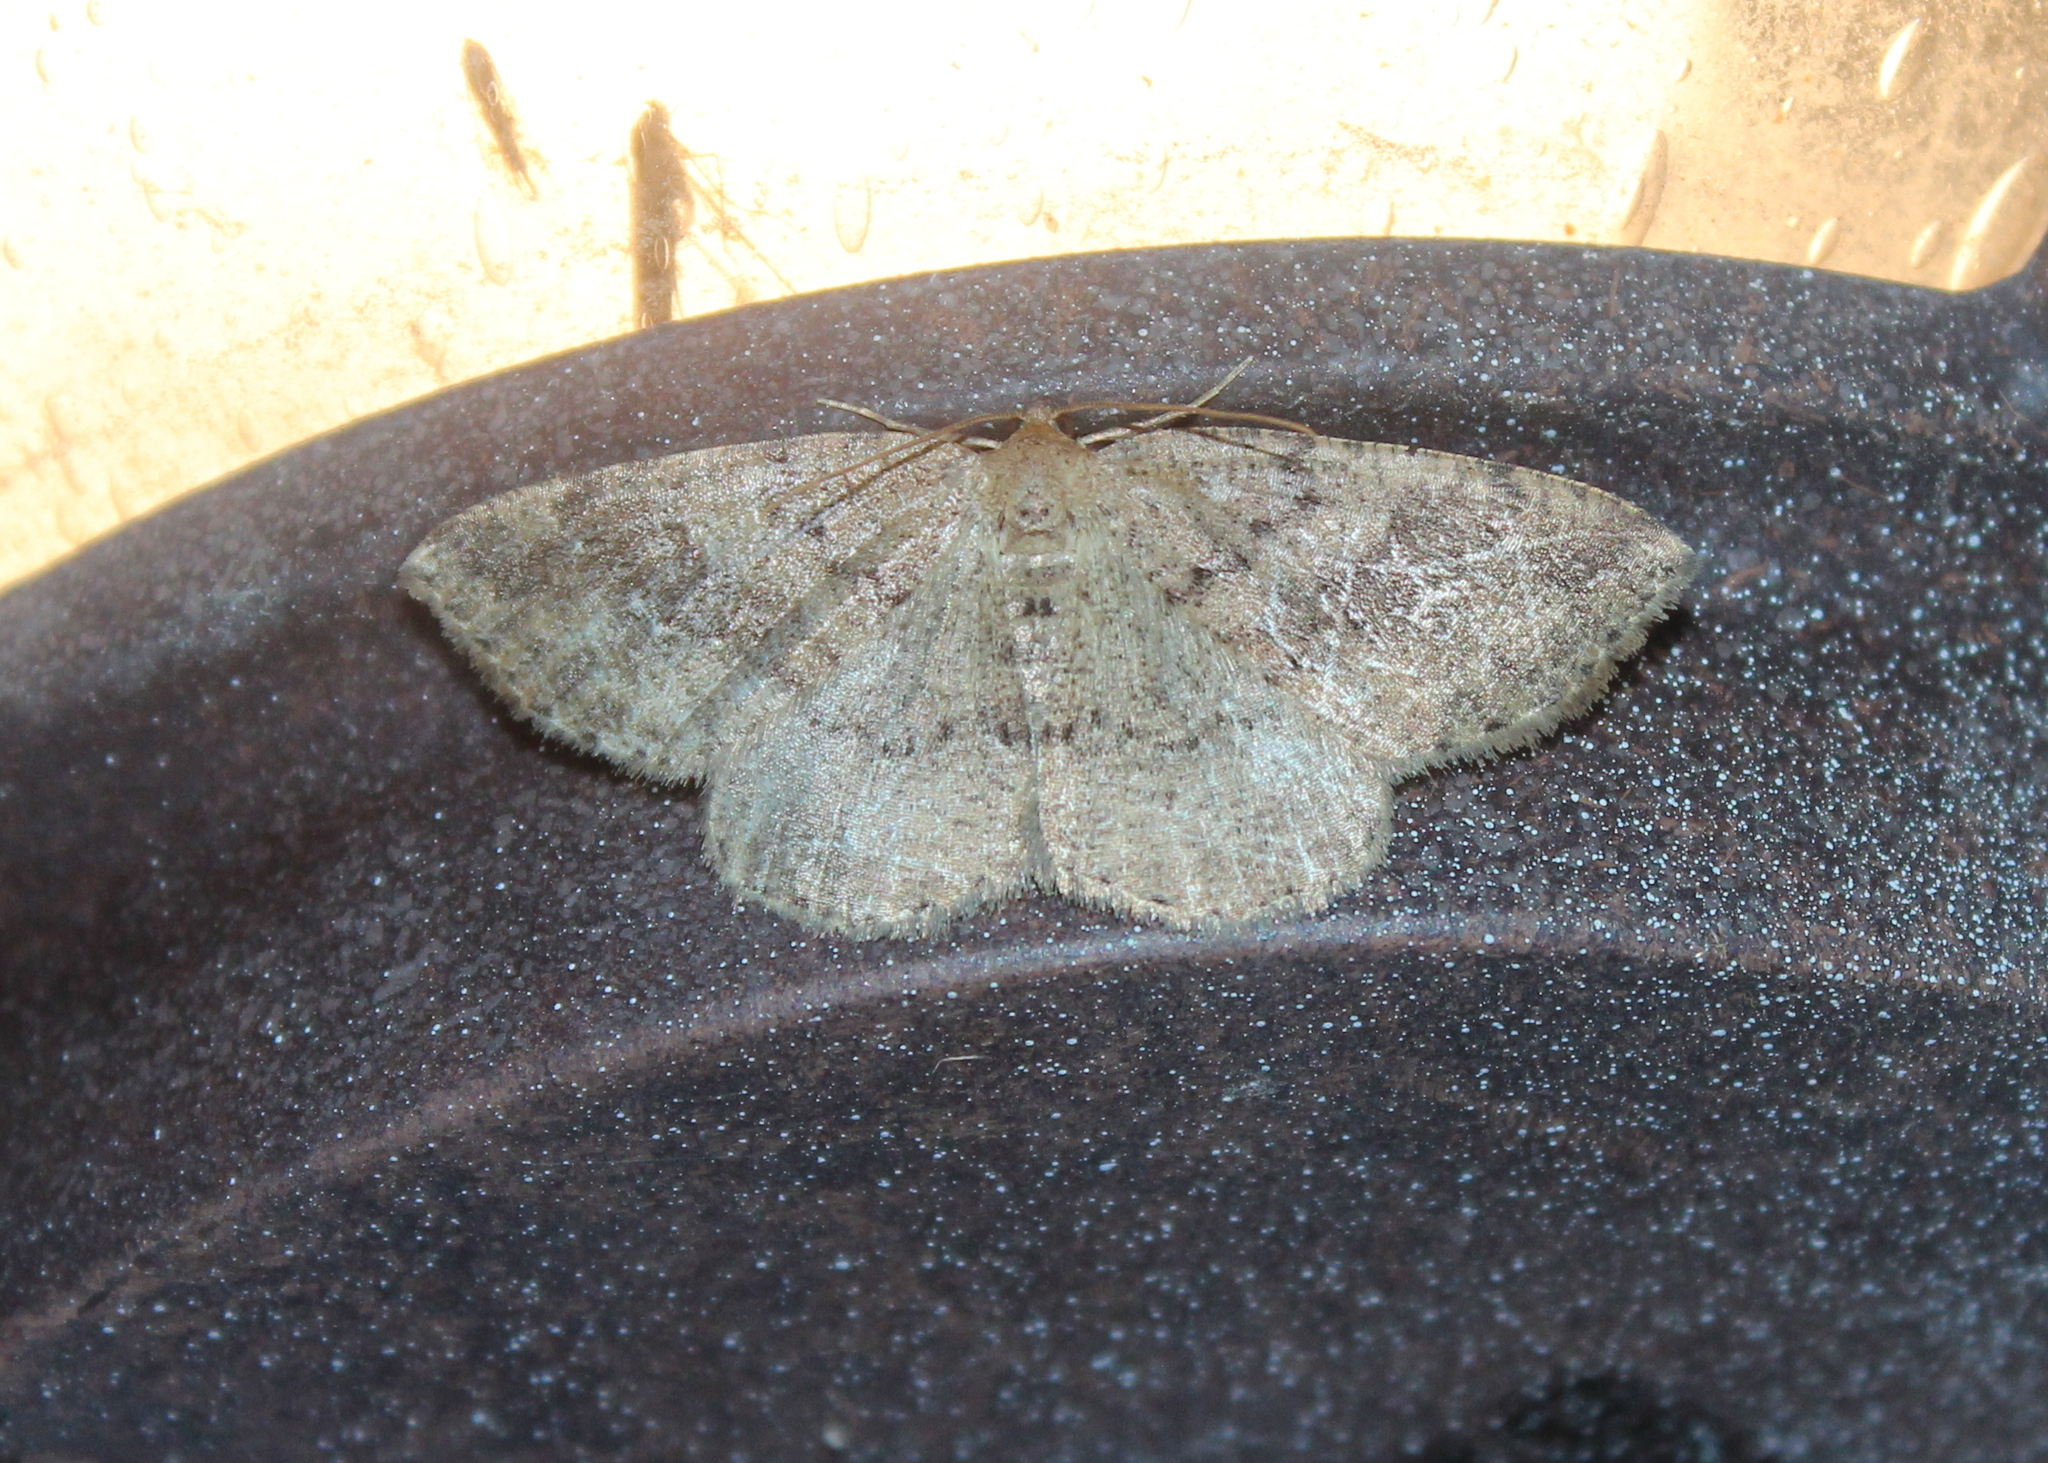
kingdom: Animalia
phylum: Arthropoda
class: Insecta
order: Lepidoptera
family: Geometridae
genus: Homochlodes
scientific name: Homochlodes fritillaria
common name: Pale homochlodes
